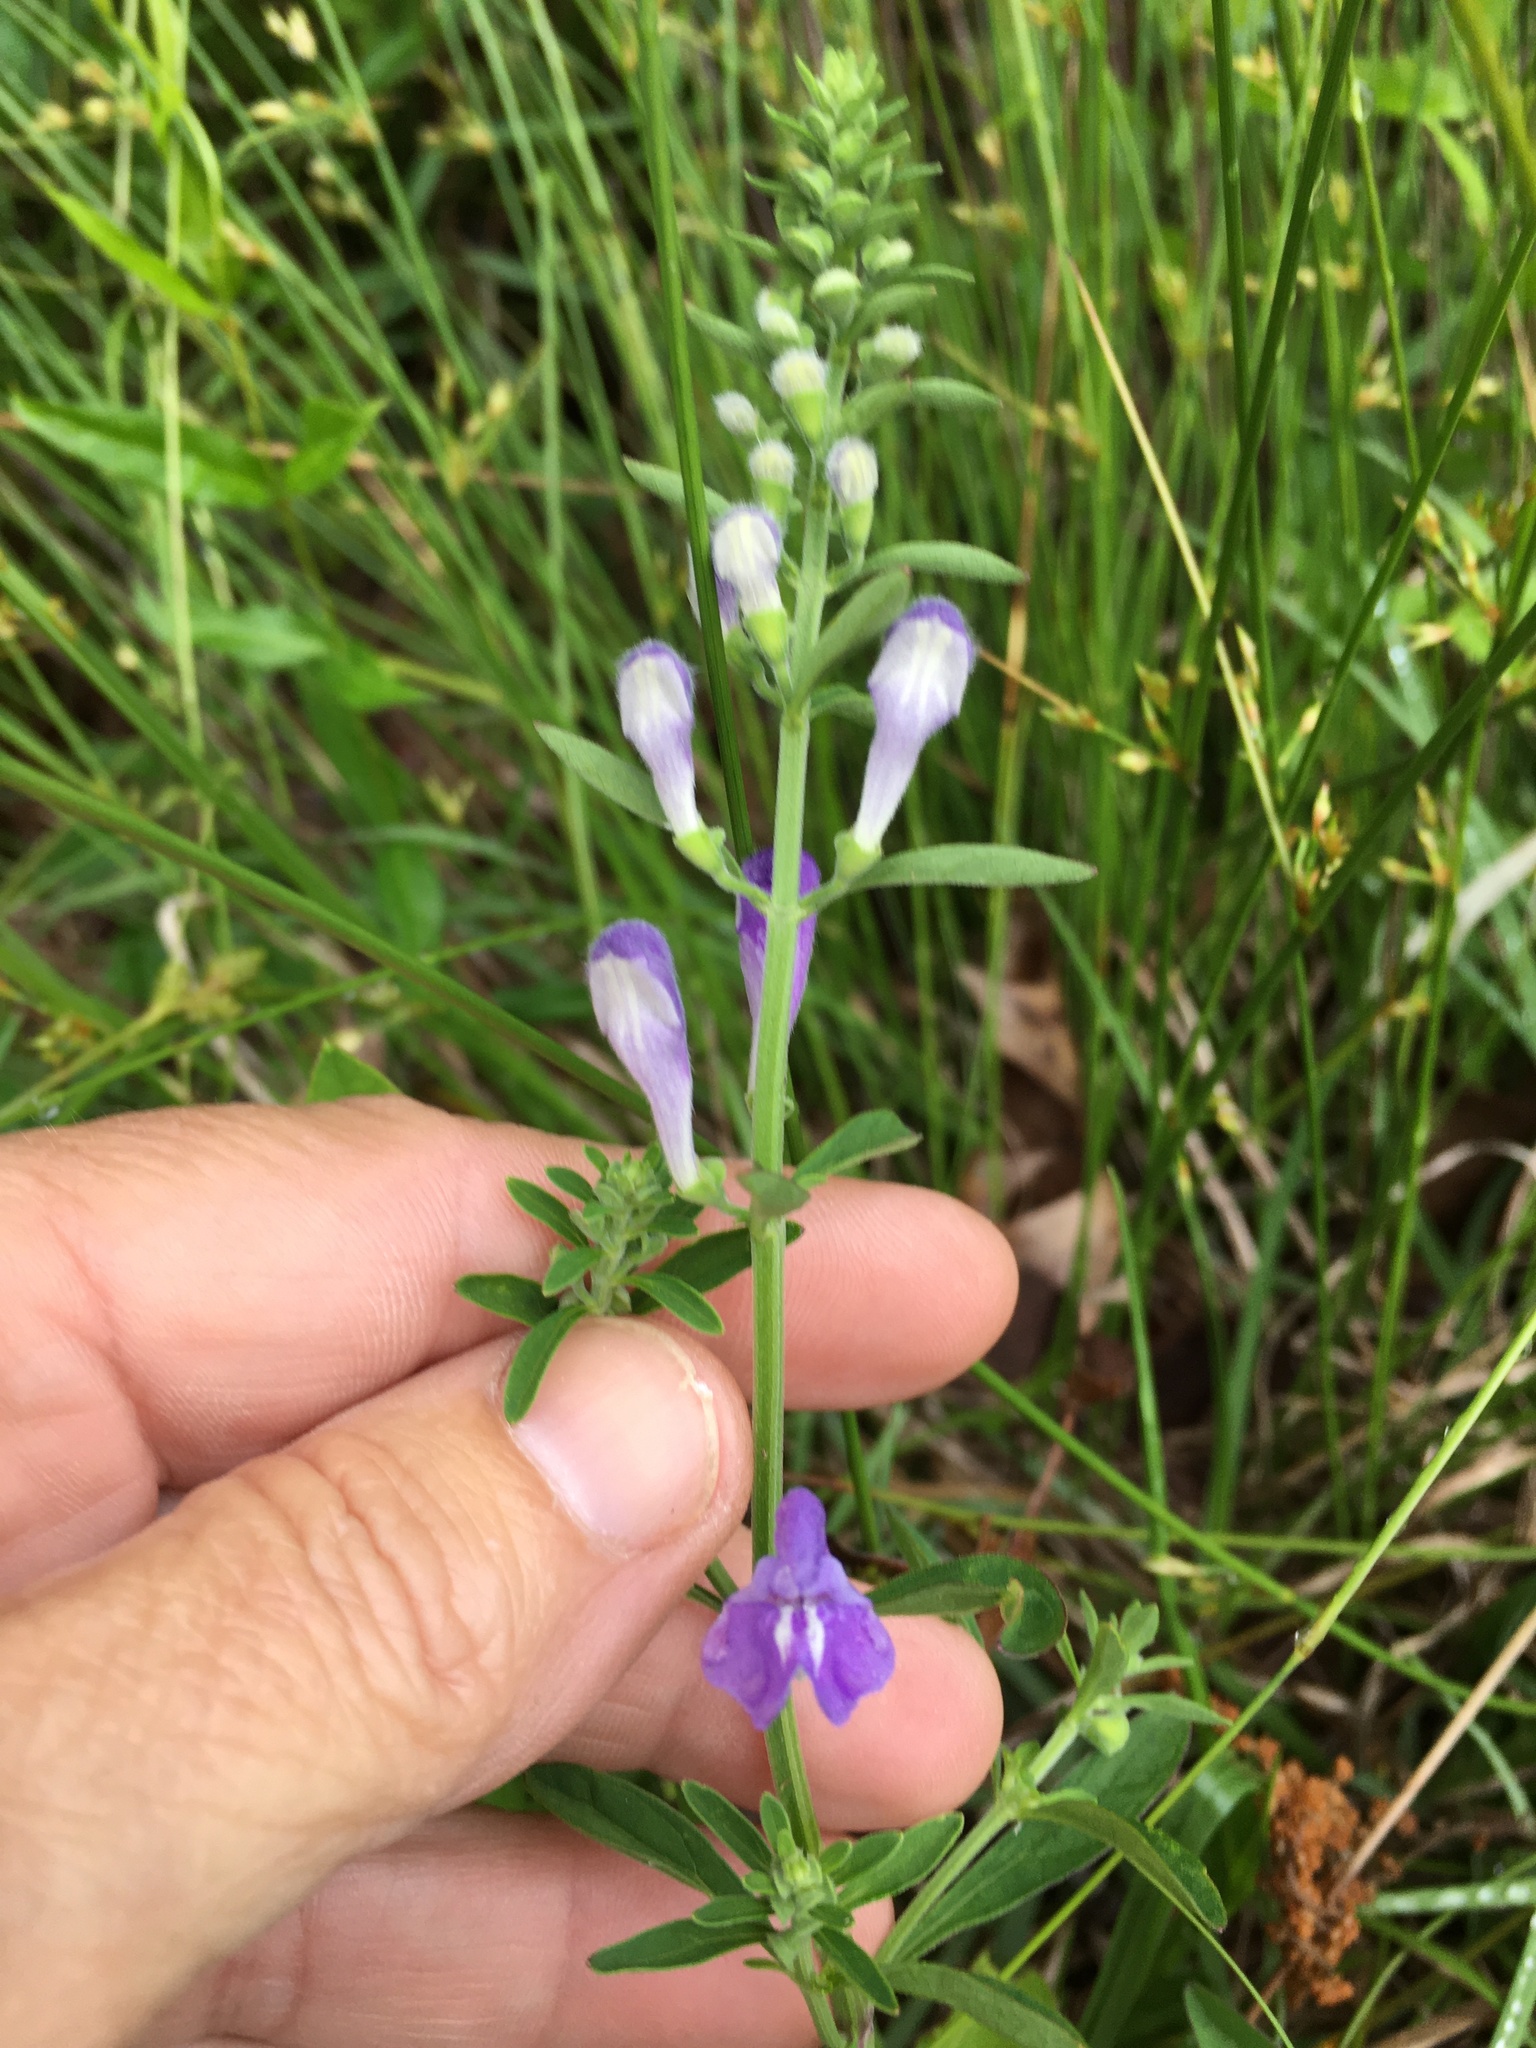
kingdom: Plantae
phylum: Tracheophyta
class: Magnoliopsida
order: Lamiales
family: Lamiaceae
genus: Scutellaria
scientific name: Scutellaria integrifolia
